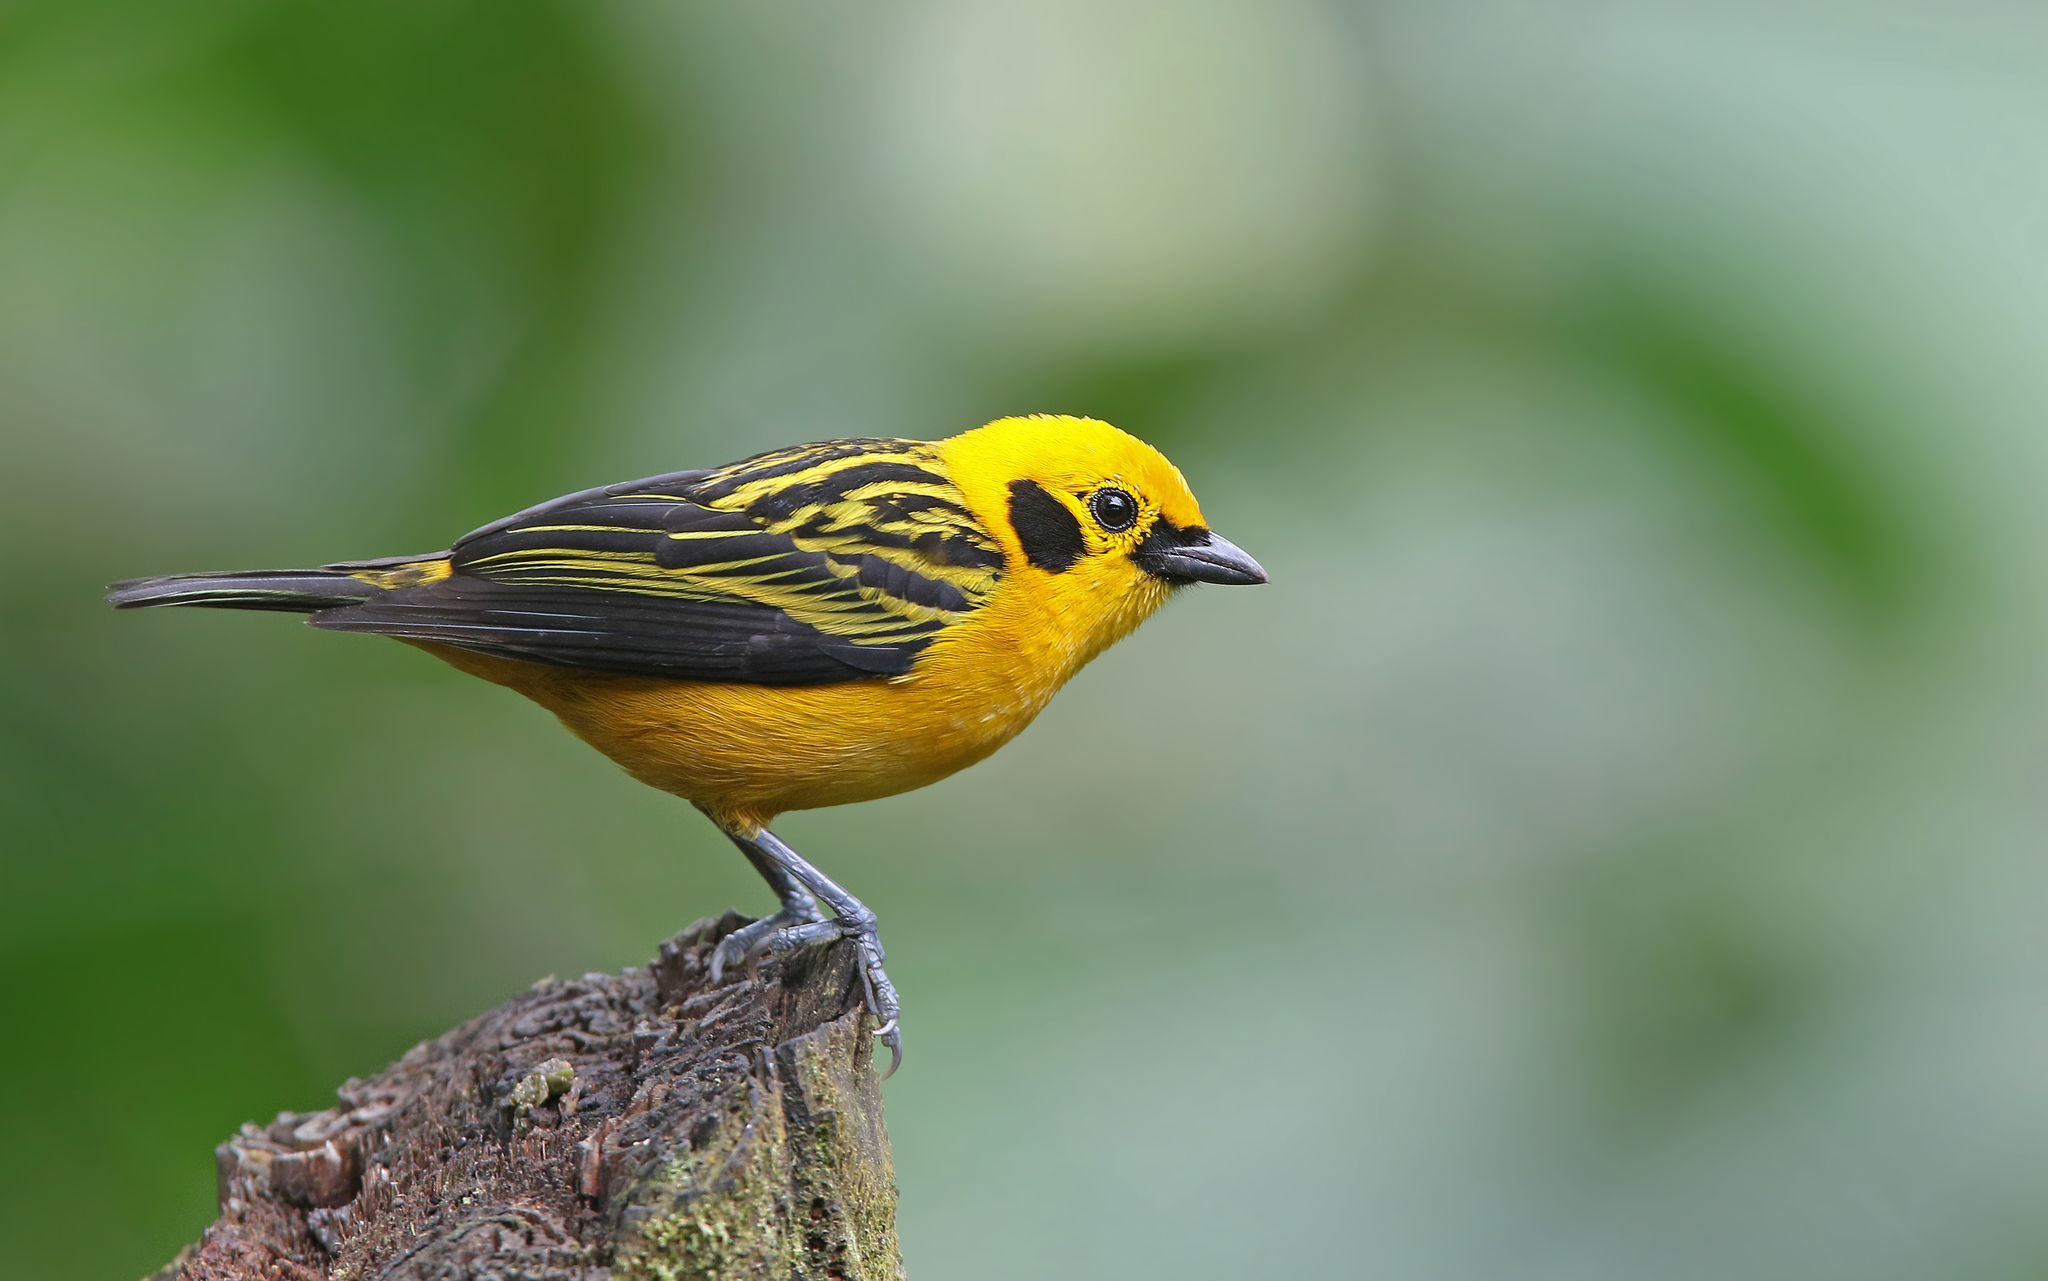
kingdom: Animalia
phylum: Chordata
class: Aves
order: Passeriformes
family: Thraupidae
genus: Tangara
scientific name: Tangara arthus
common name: Golden tanager
